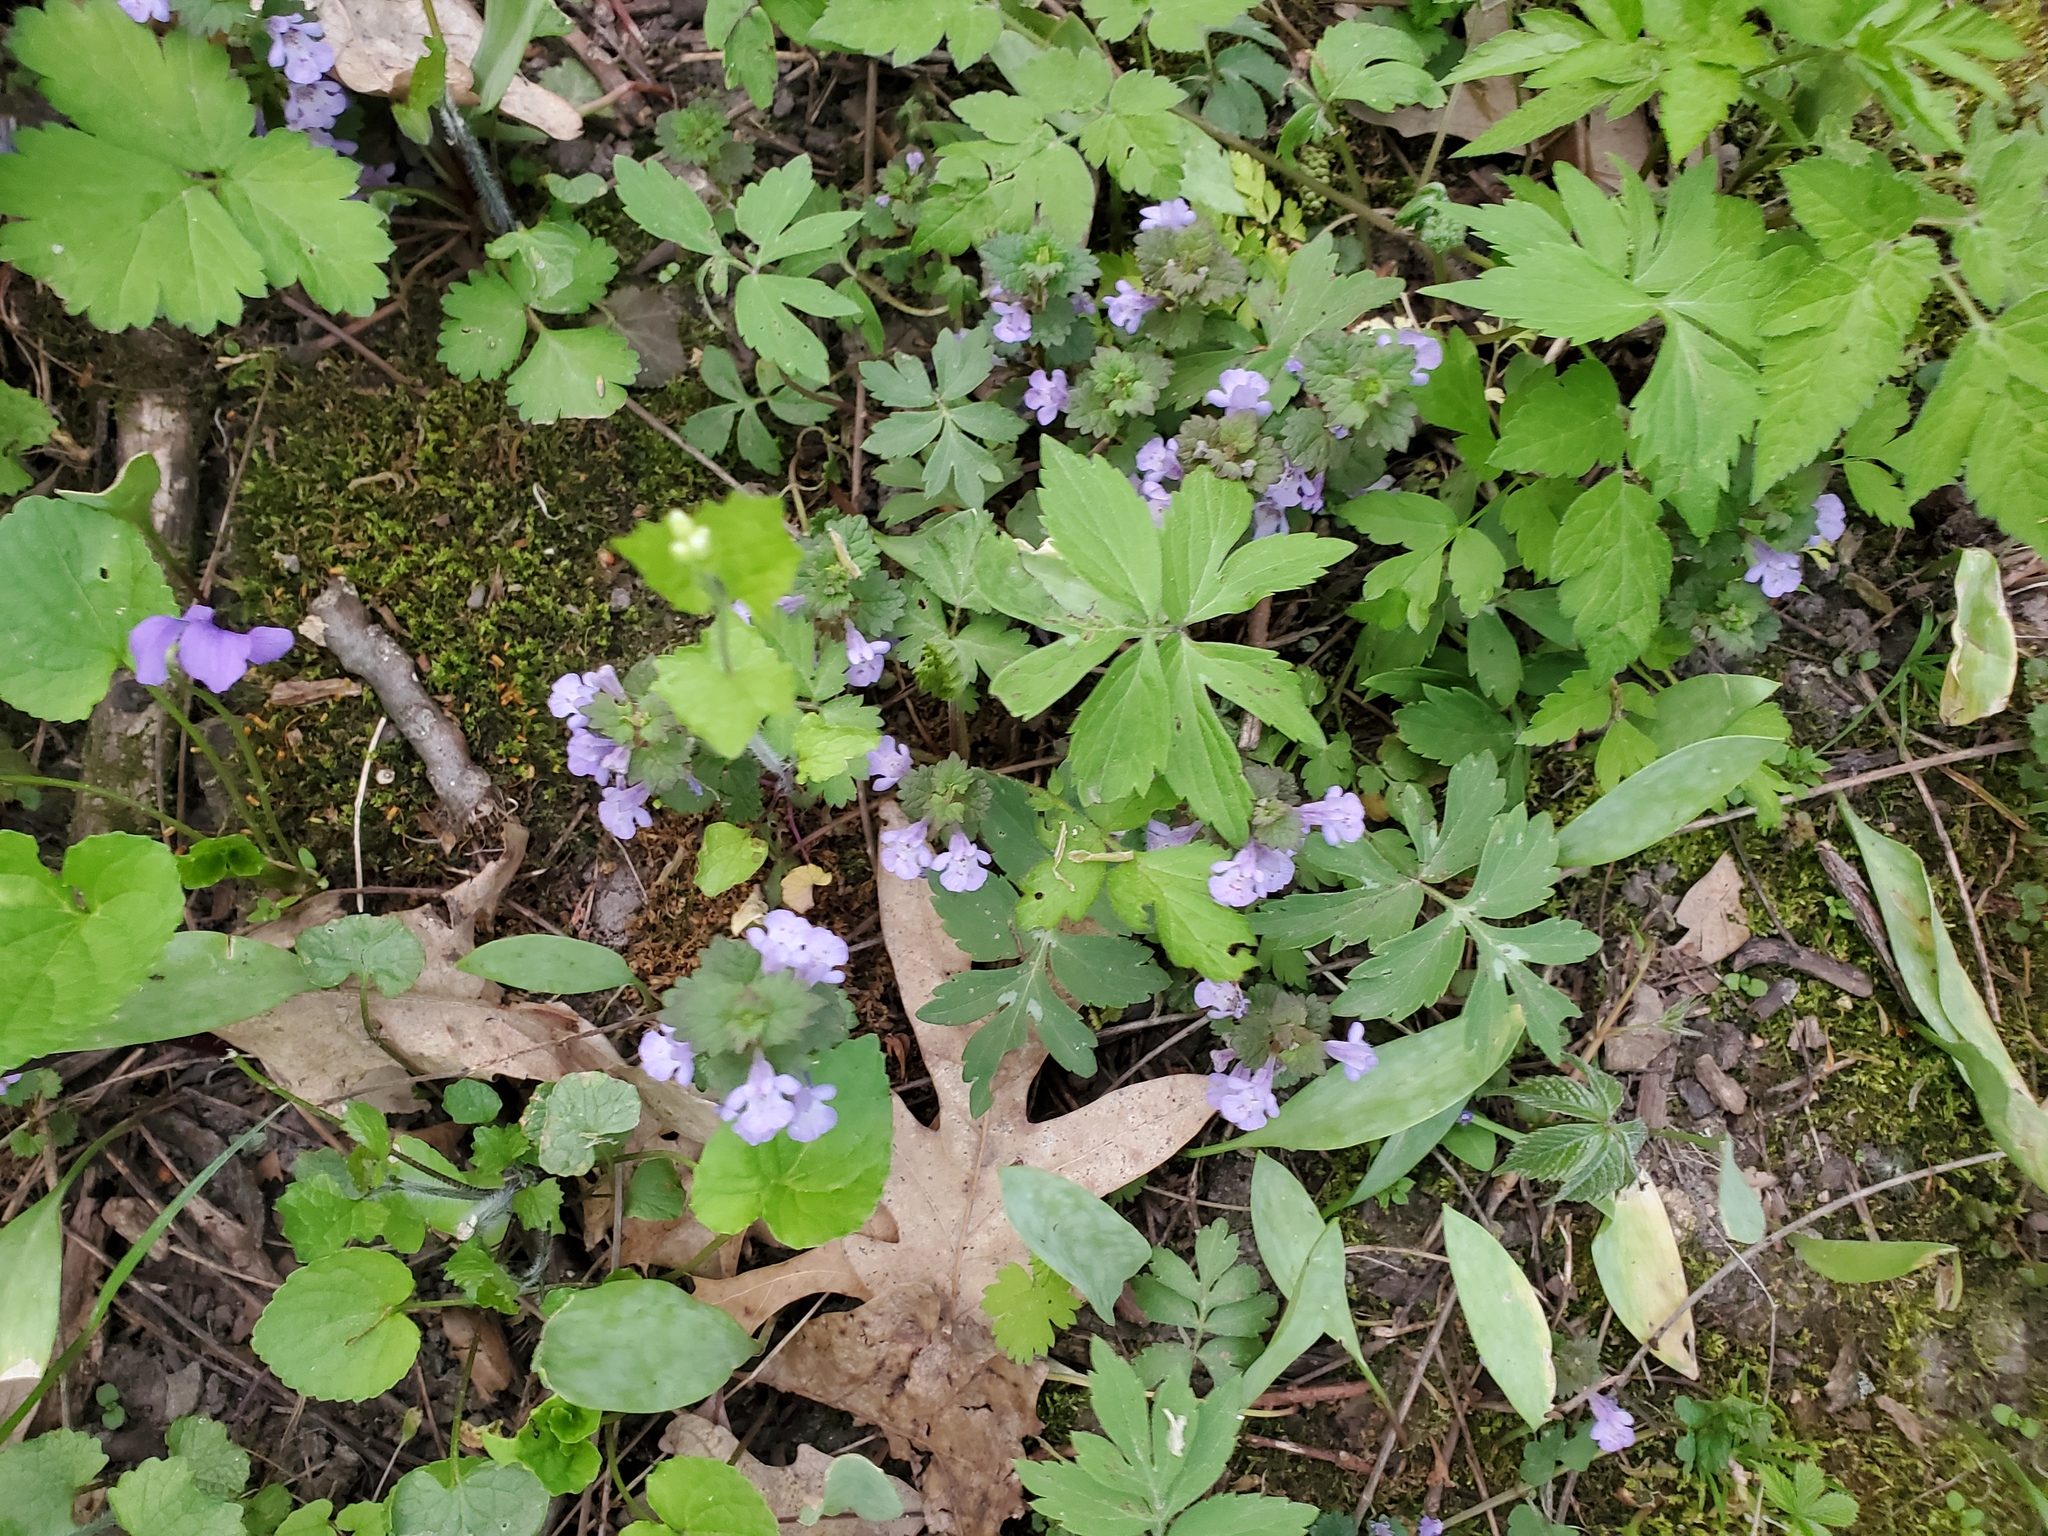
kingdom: Plantae
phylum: Tracheophyta
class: Magnoliopsida
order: Boraginales
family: Hydrophyllaceae
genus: Hydrophyllum
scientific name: Hydrophyllum virginianum
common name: Virginia waterleaf
